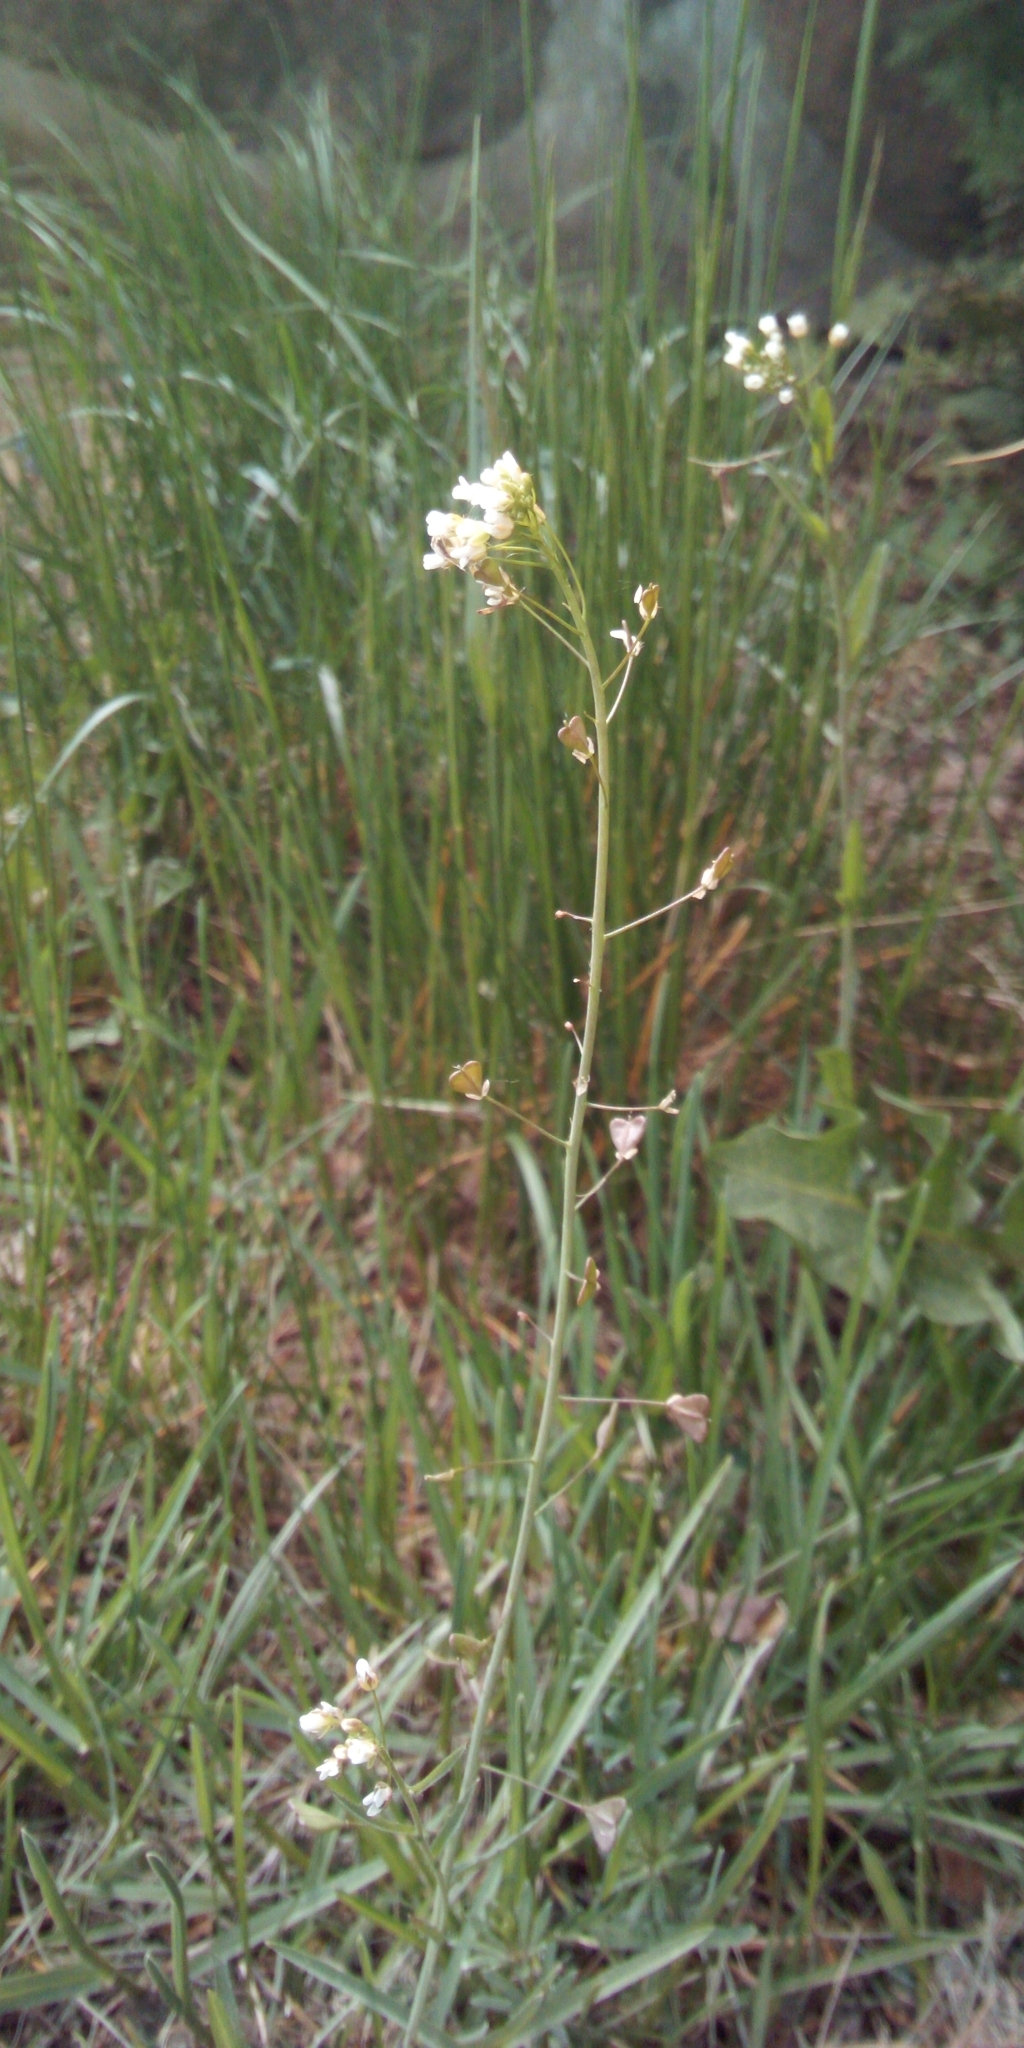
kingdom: Plantae
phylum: Tracheophyta
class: Magnoliopsida
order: Brassicales
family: Brassicaceae
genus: Capsella
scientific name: Capsella bursa-pastoris
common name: Shepherd's purse
